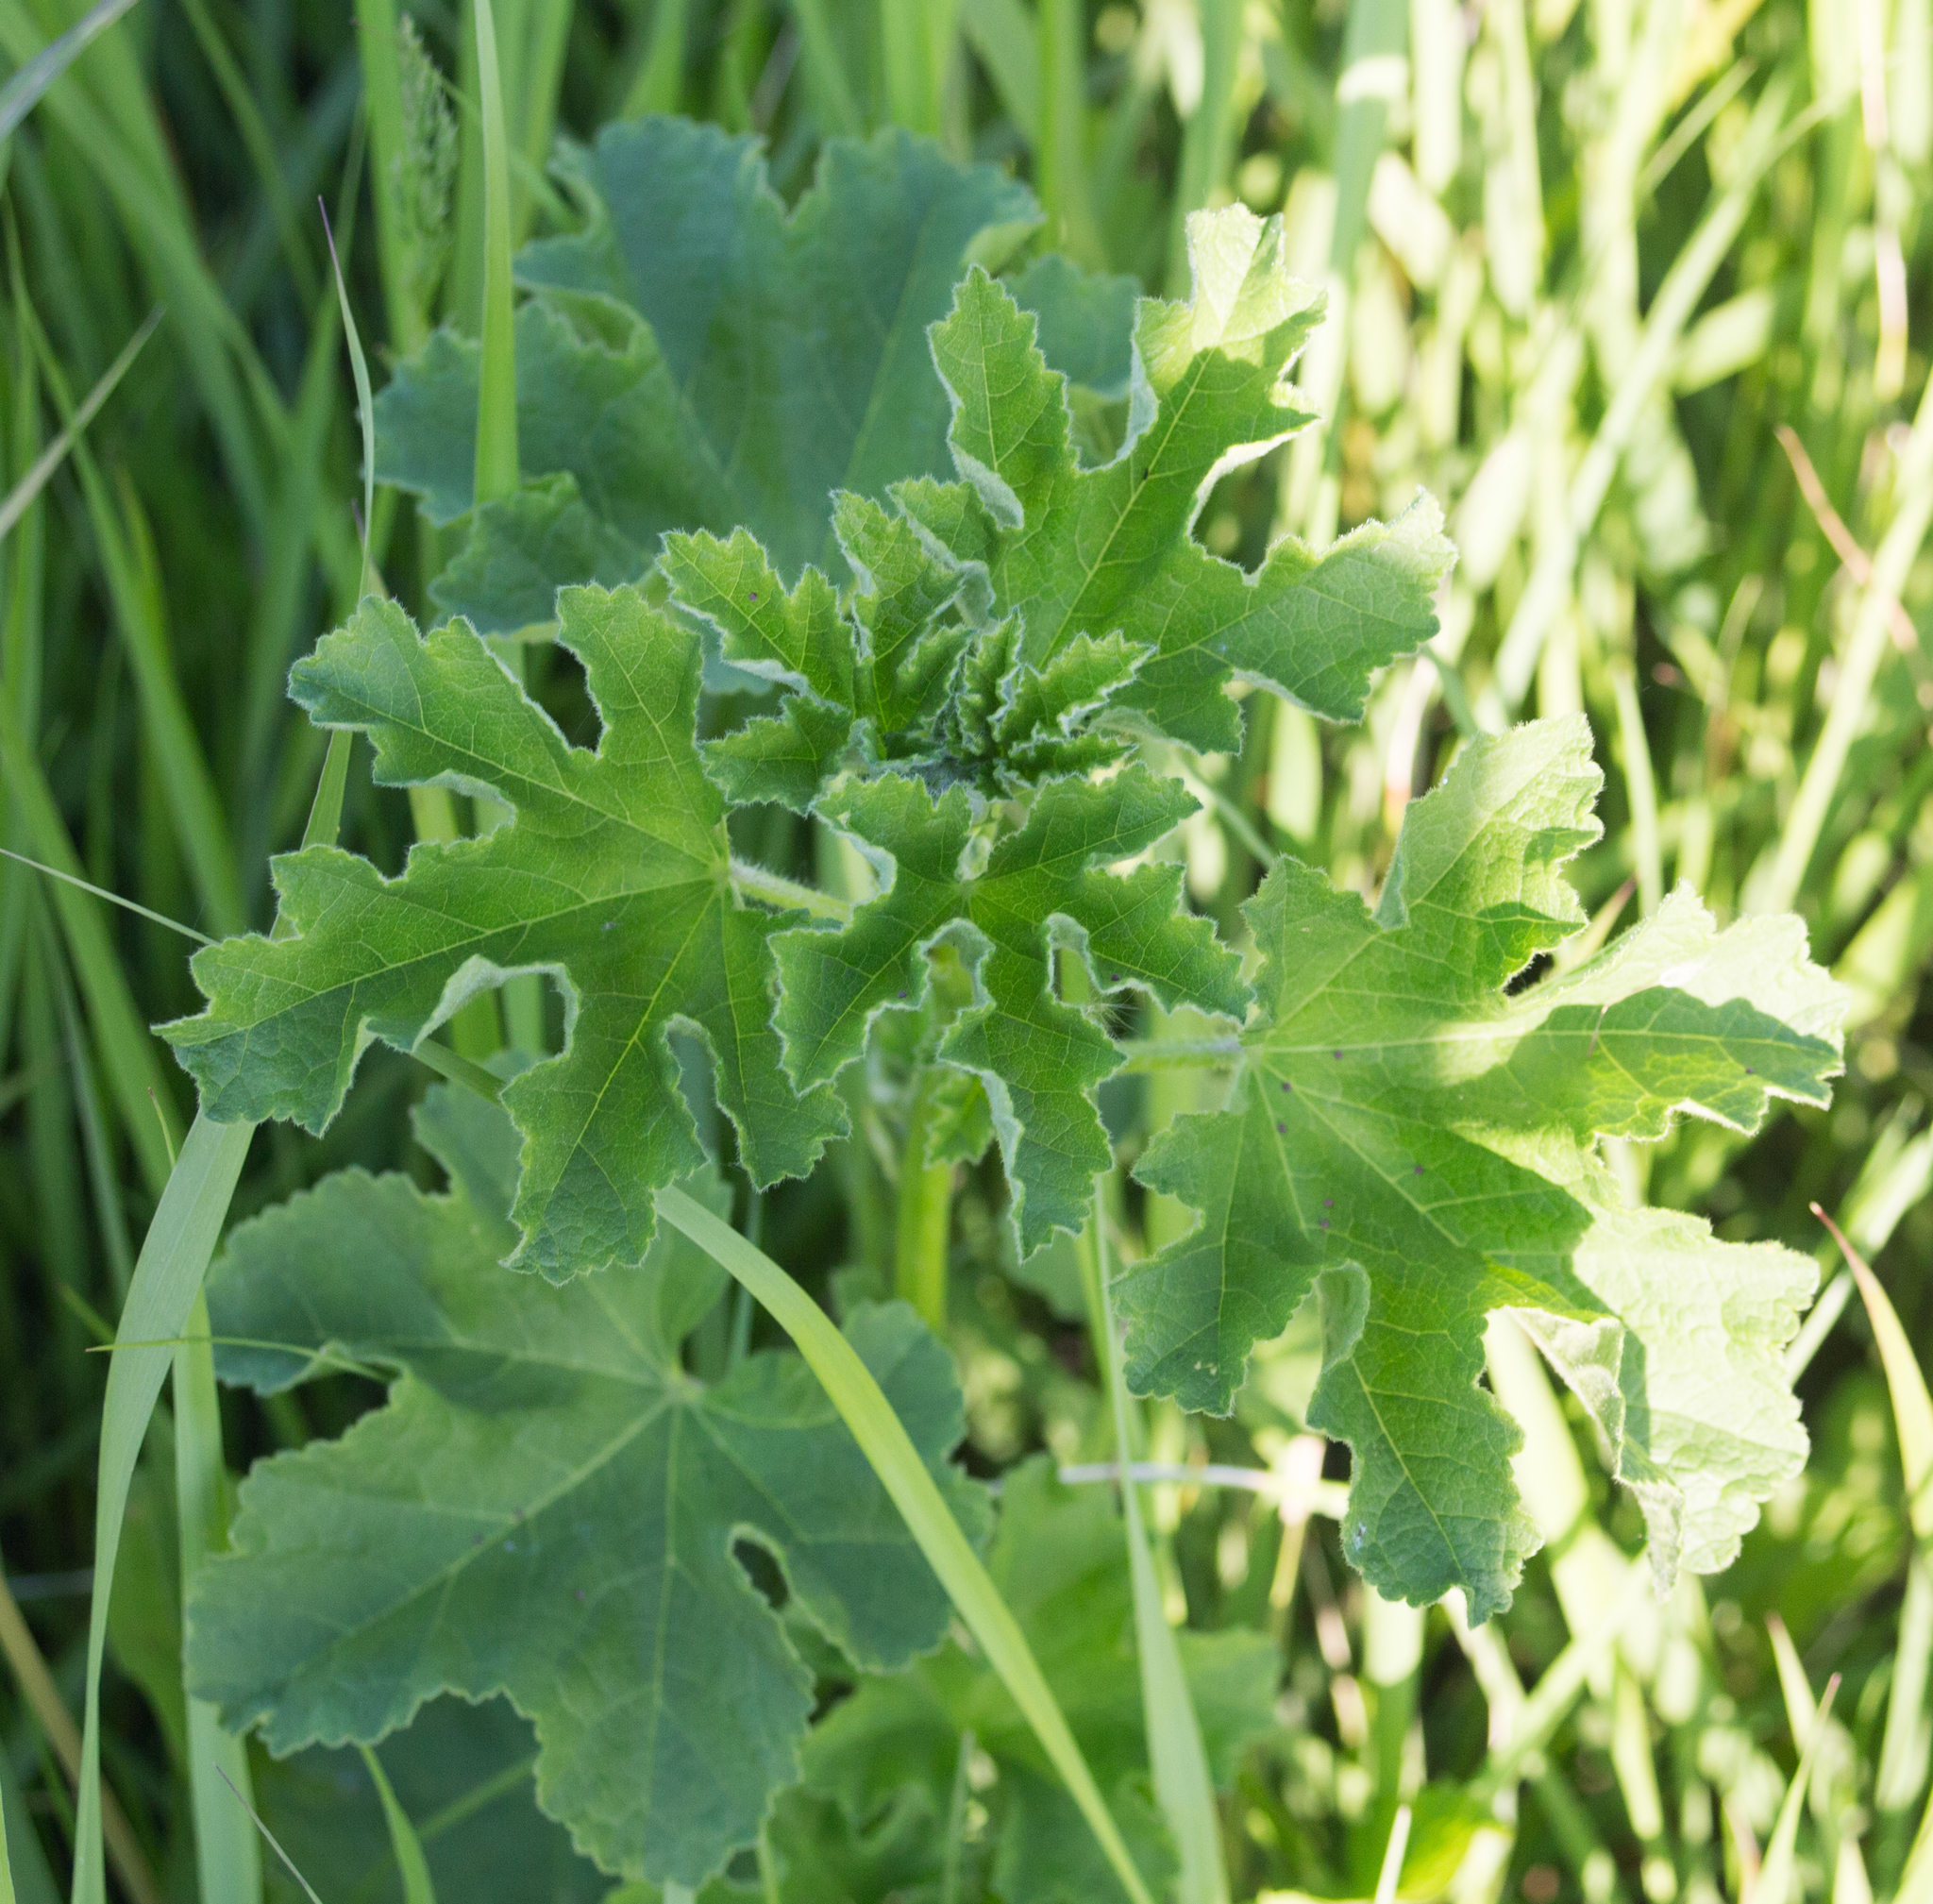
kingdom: Plantae
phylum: Tracheophyta
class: Magnoliopsida
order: Malvales
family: Malvaceae
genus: Malva
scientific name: Malva thuringiaca
